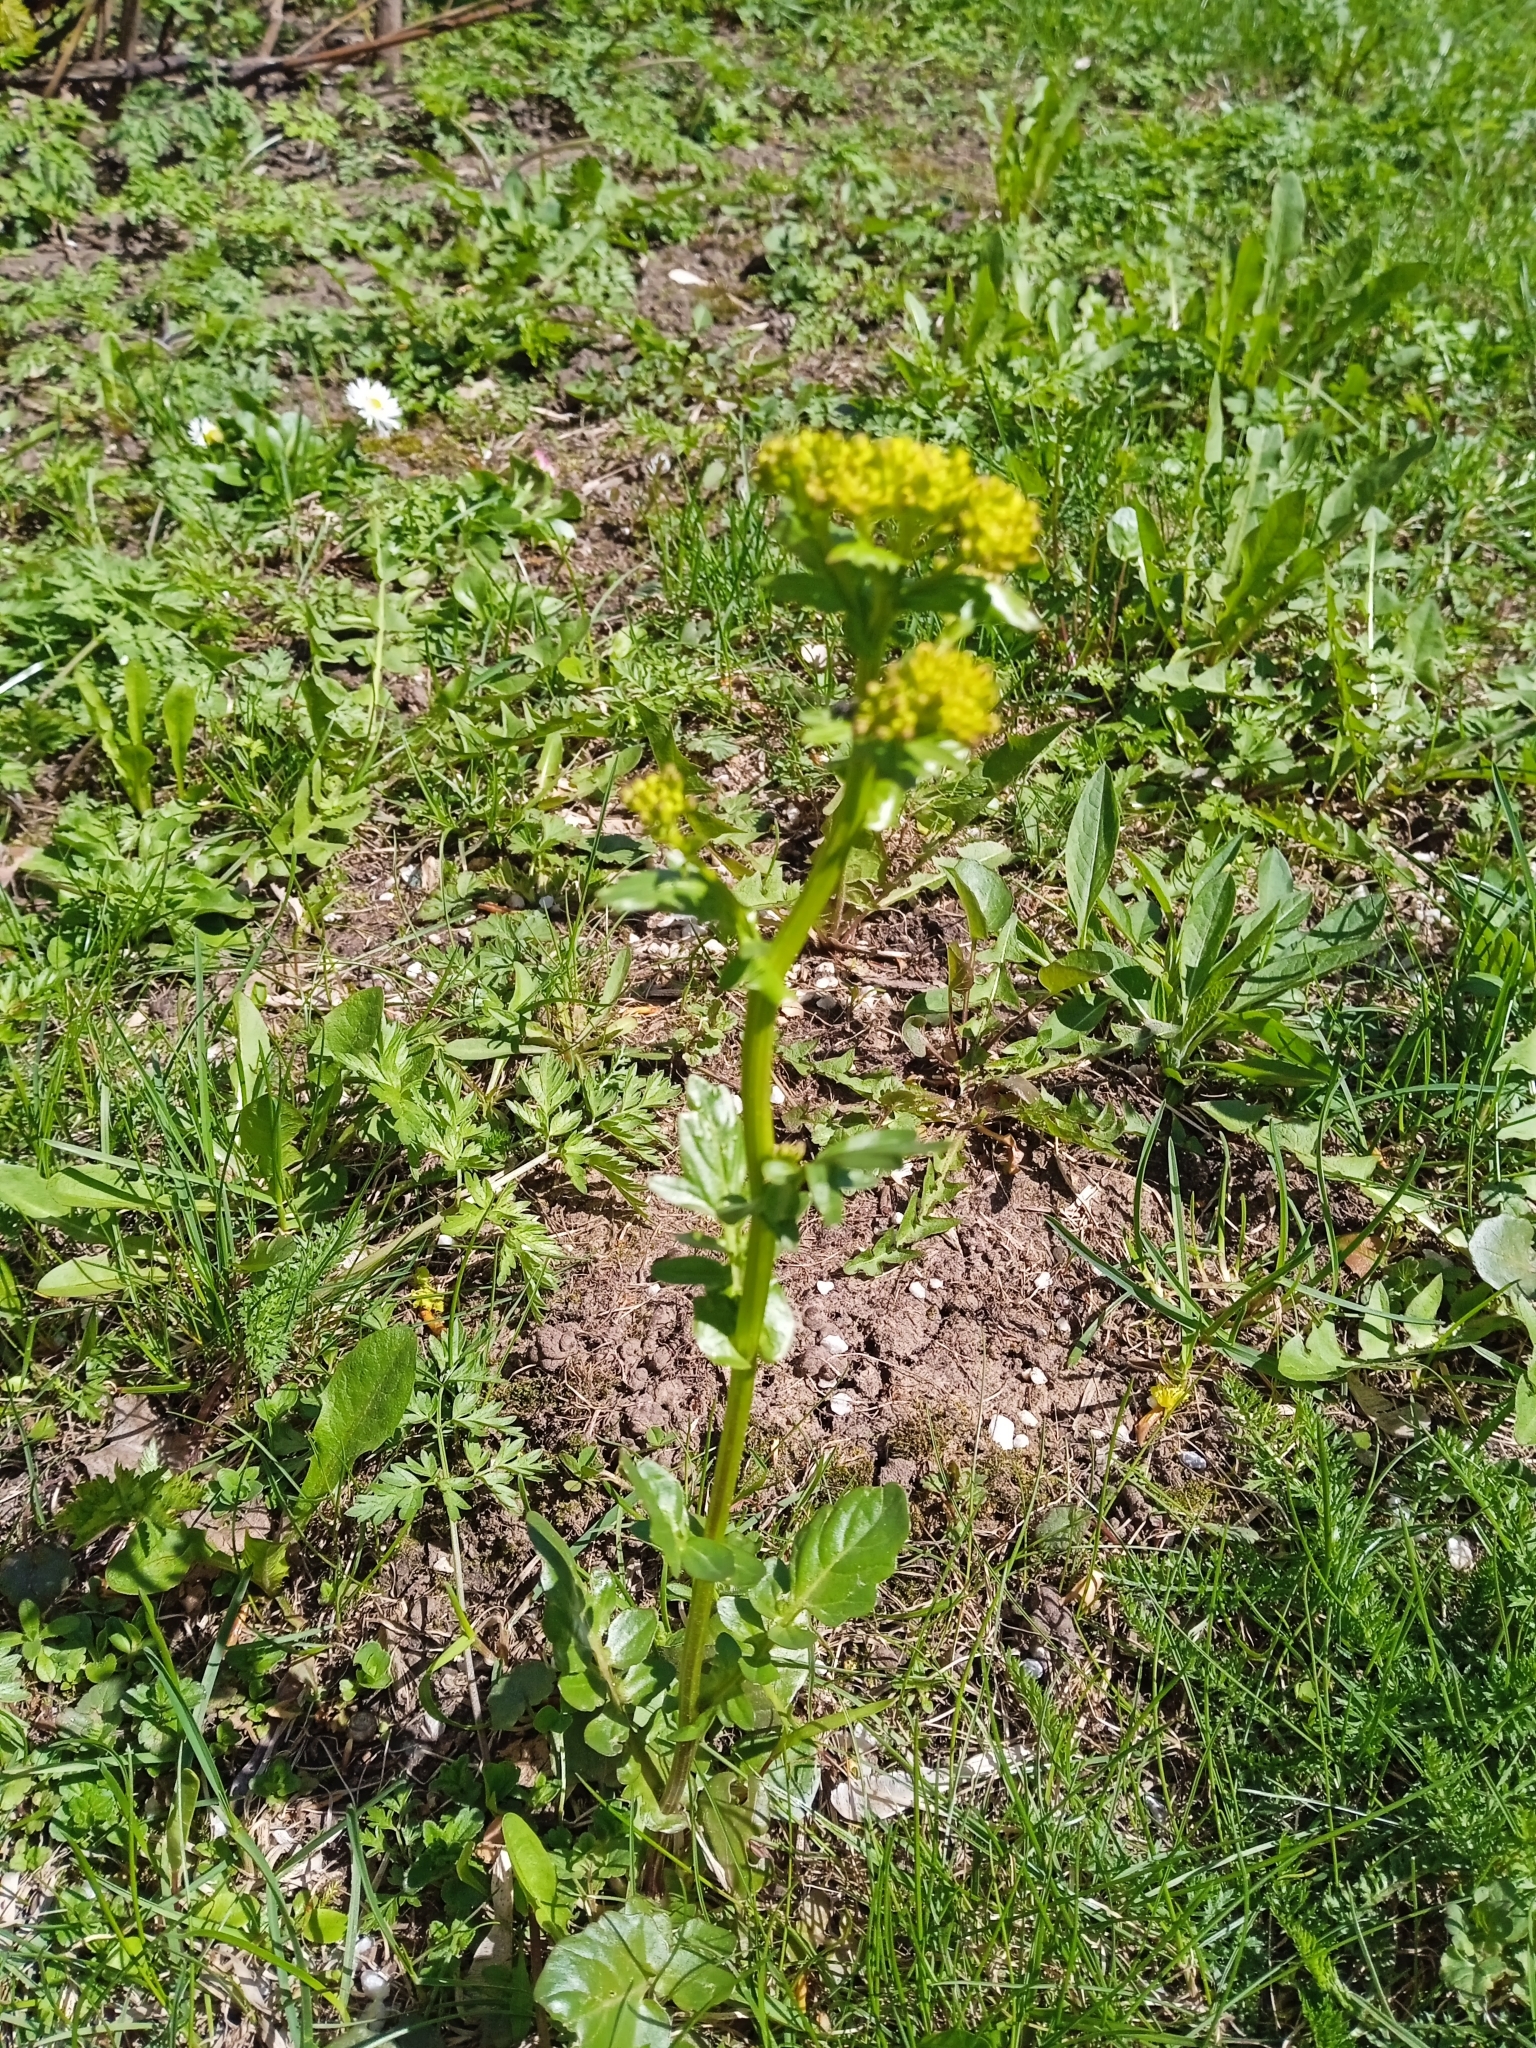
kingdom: Plantae
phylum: Tracheophyta
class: Magnoliopsida
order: Brassicales
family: Brassicaceae
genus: Barbarea
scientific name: Barbarea vulgaris
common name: Cressy-greens
